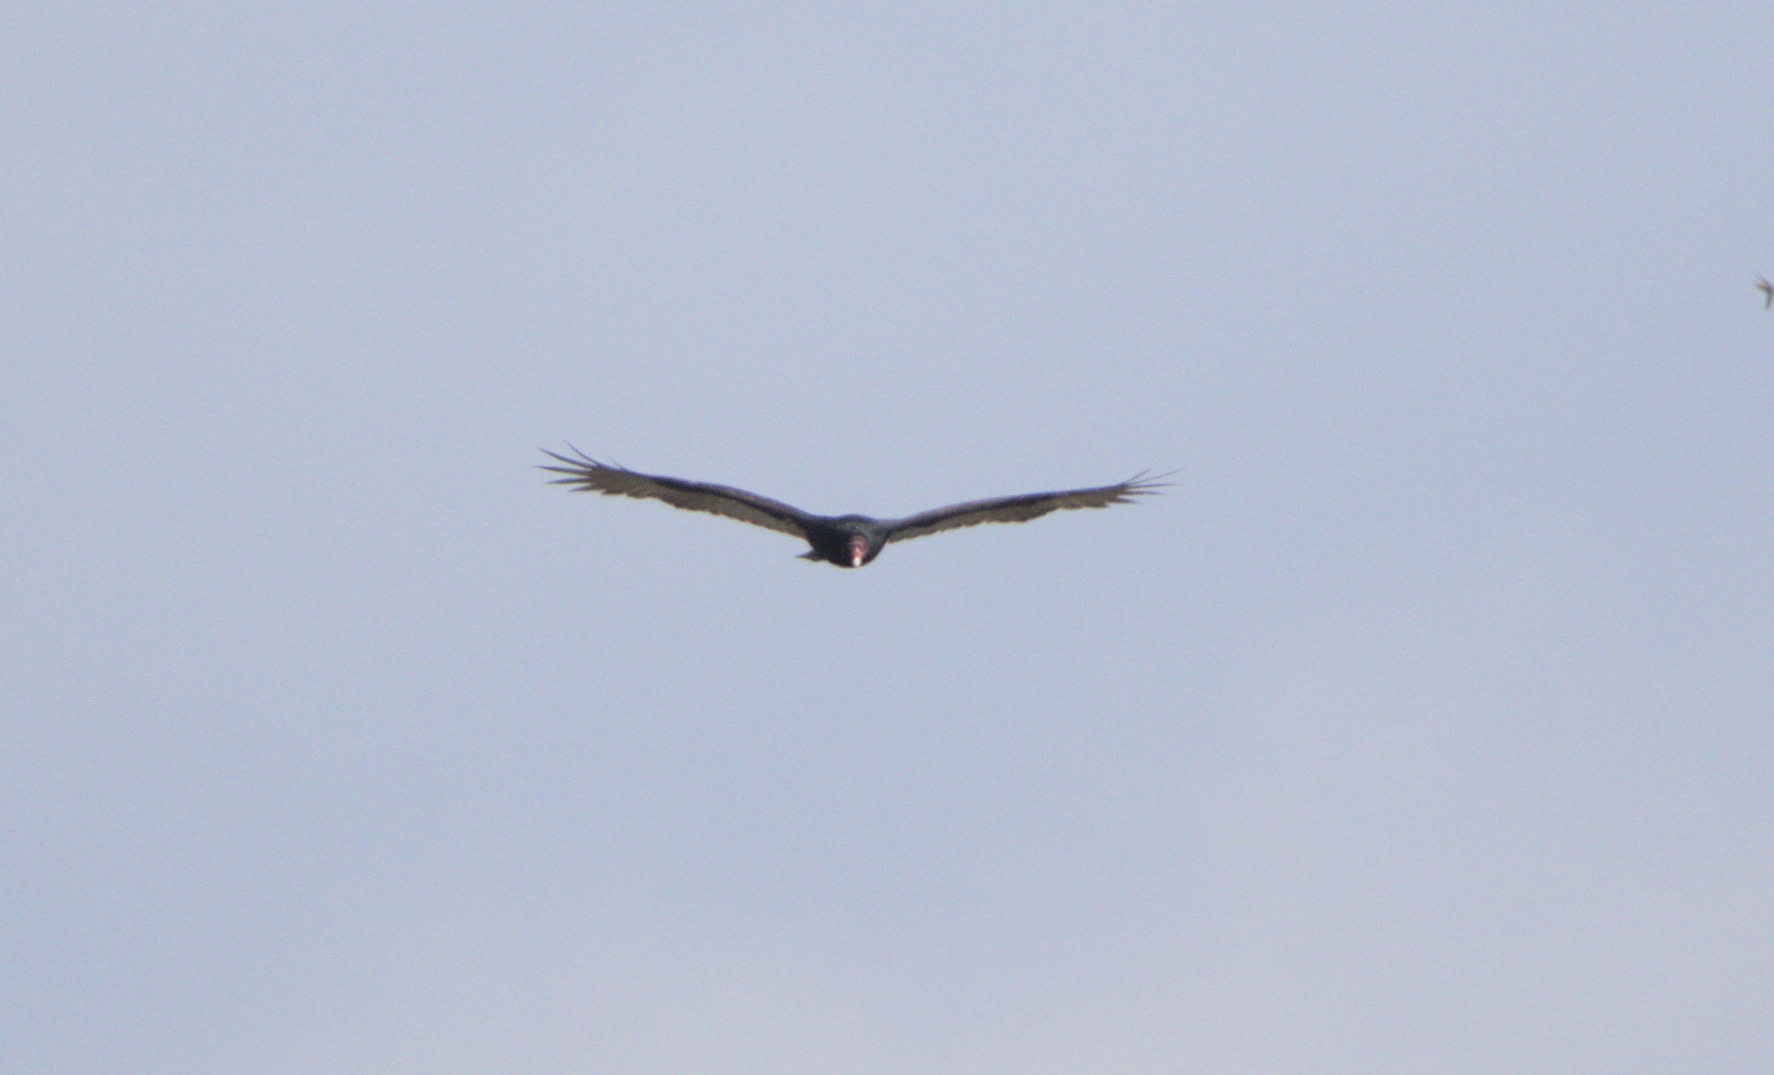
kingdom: Animalia
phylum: Chordata
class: Aves
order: Accipitriformes
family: Cathartidae
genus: Cathartes
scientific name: Cathartes aura
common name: Turkey vulture
